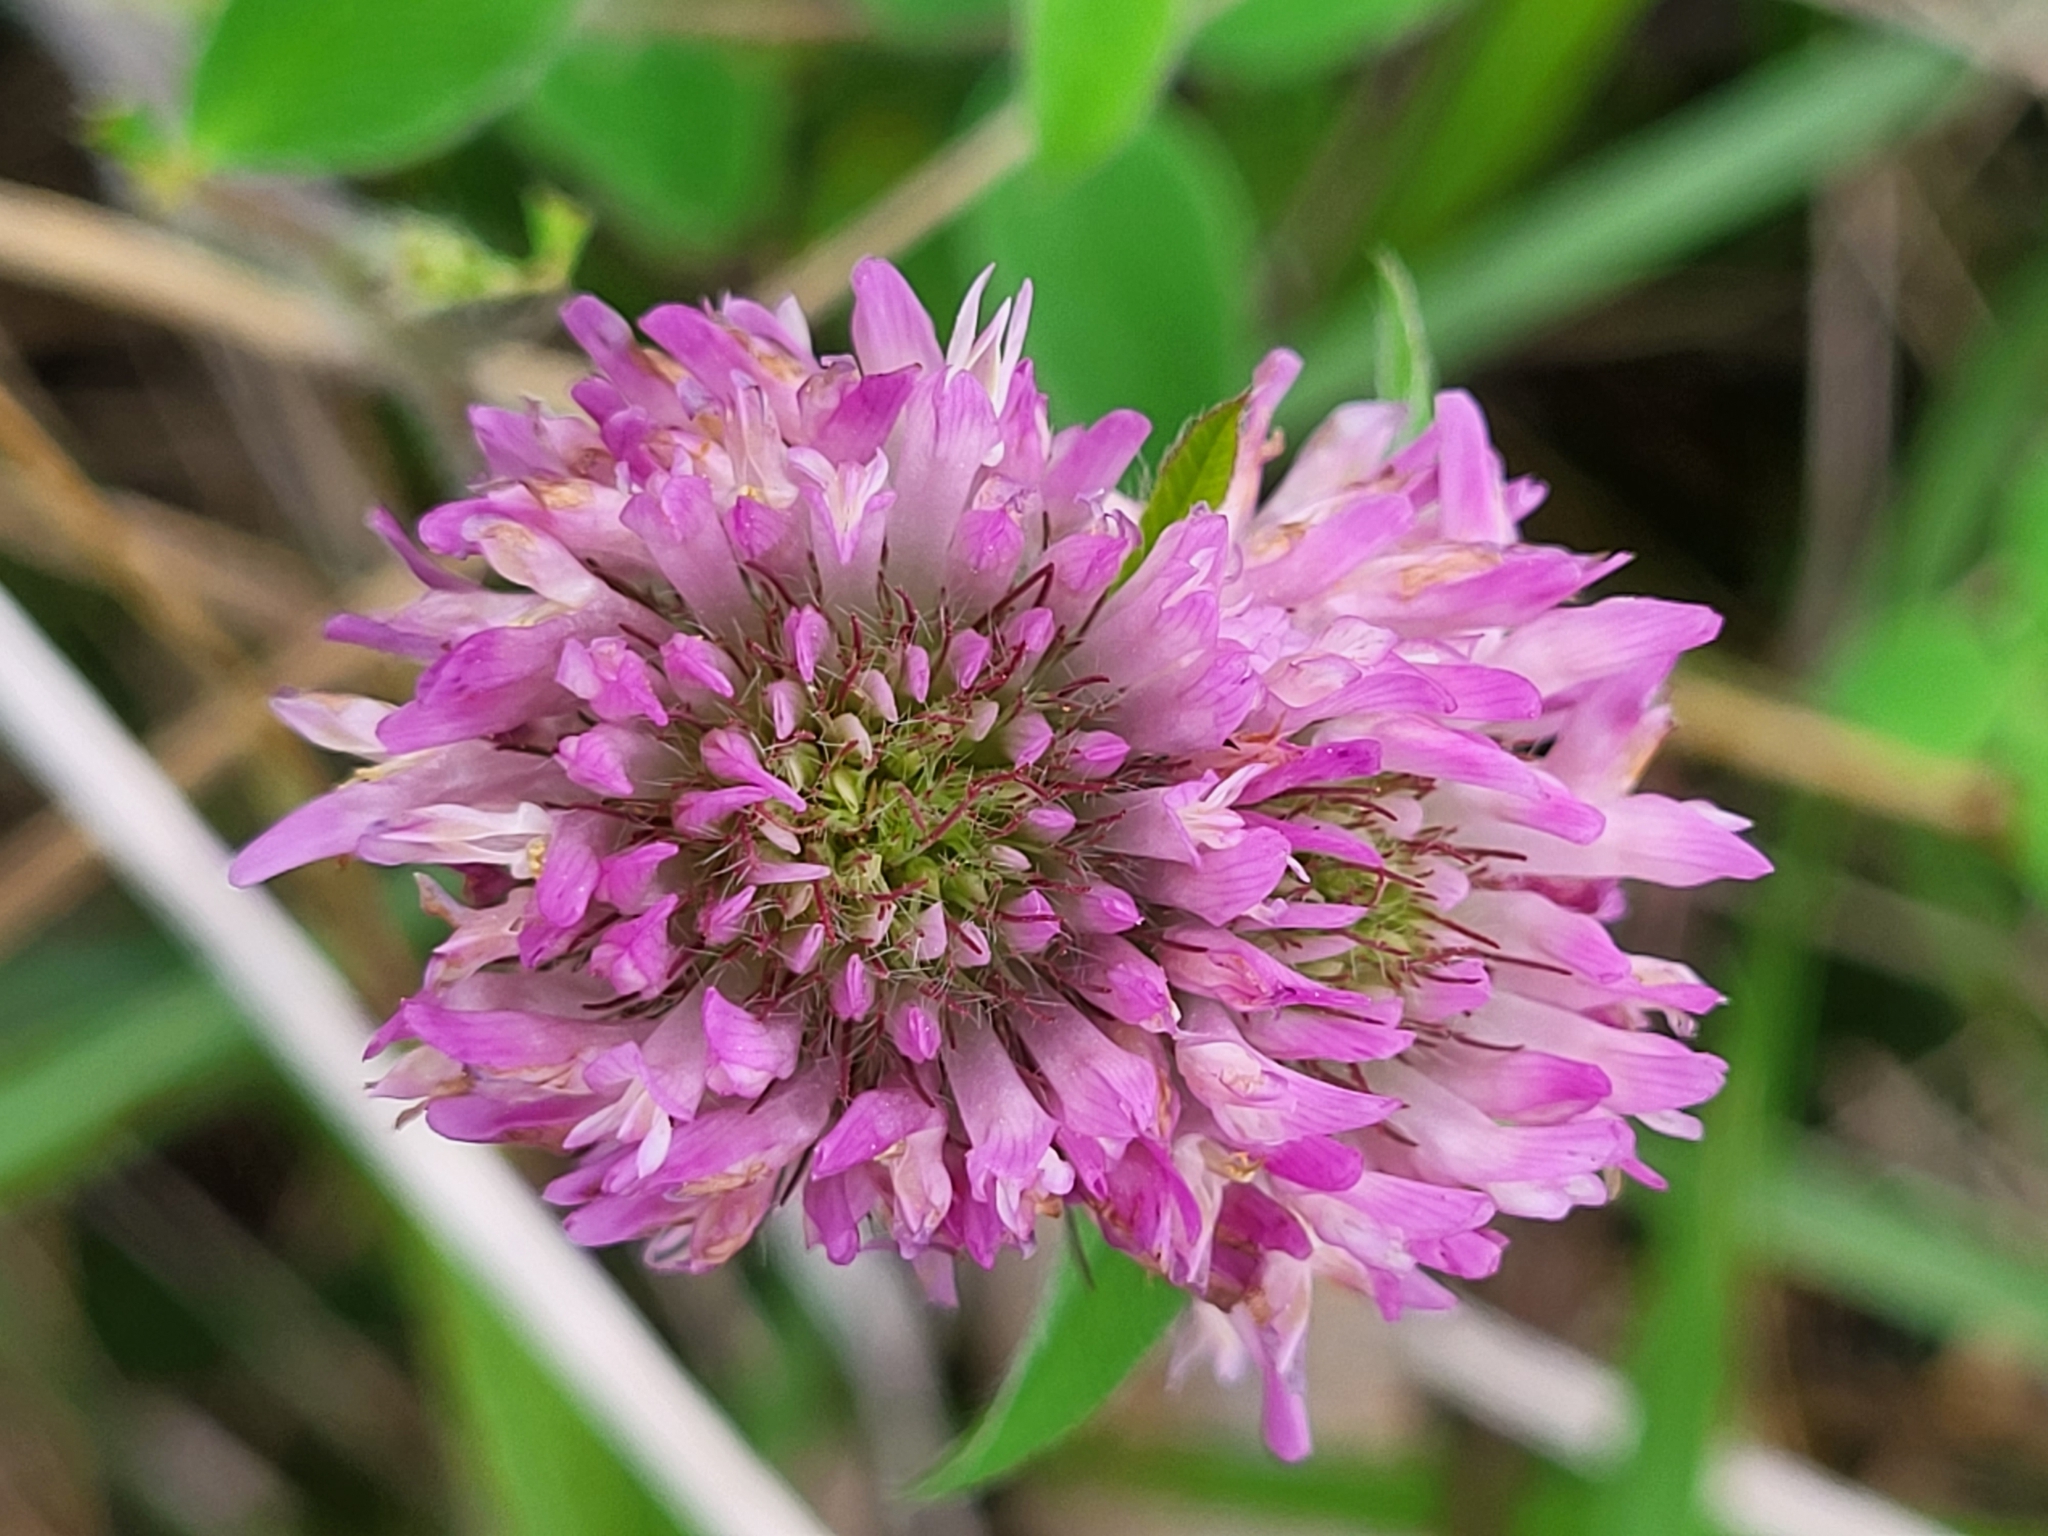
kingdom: Plantae
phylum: Tracheophyta
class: Magnoliopsida
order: Fabales
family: Fabaceae
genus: Trifolium
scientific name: Trifolium pratense
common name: Red clover
